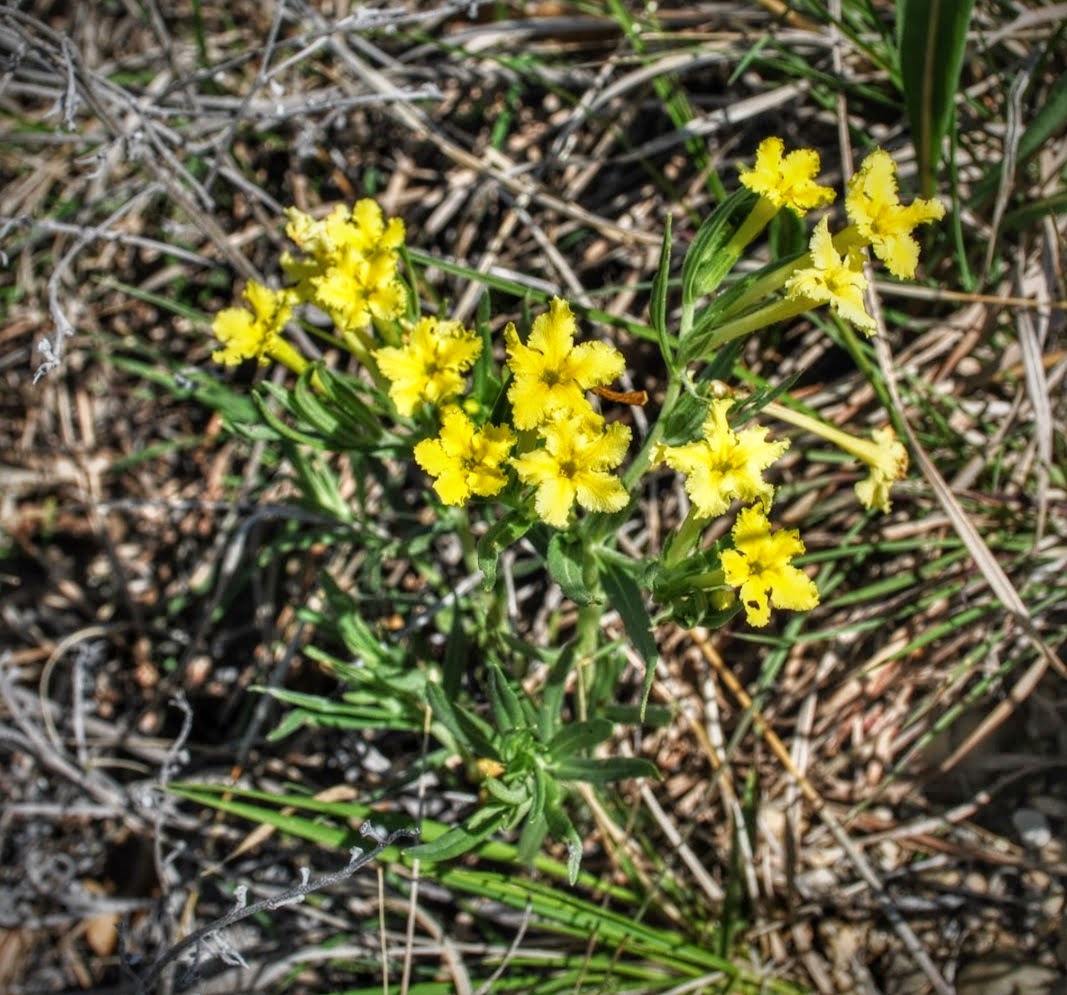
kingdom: Plantae
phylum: Tracheophyta
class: Magnoliopsida
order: Boraginales
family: Boraginaceae
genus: Lithospermum
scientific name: Lithospermum incisum
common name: Fringed gromwell
